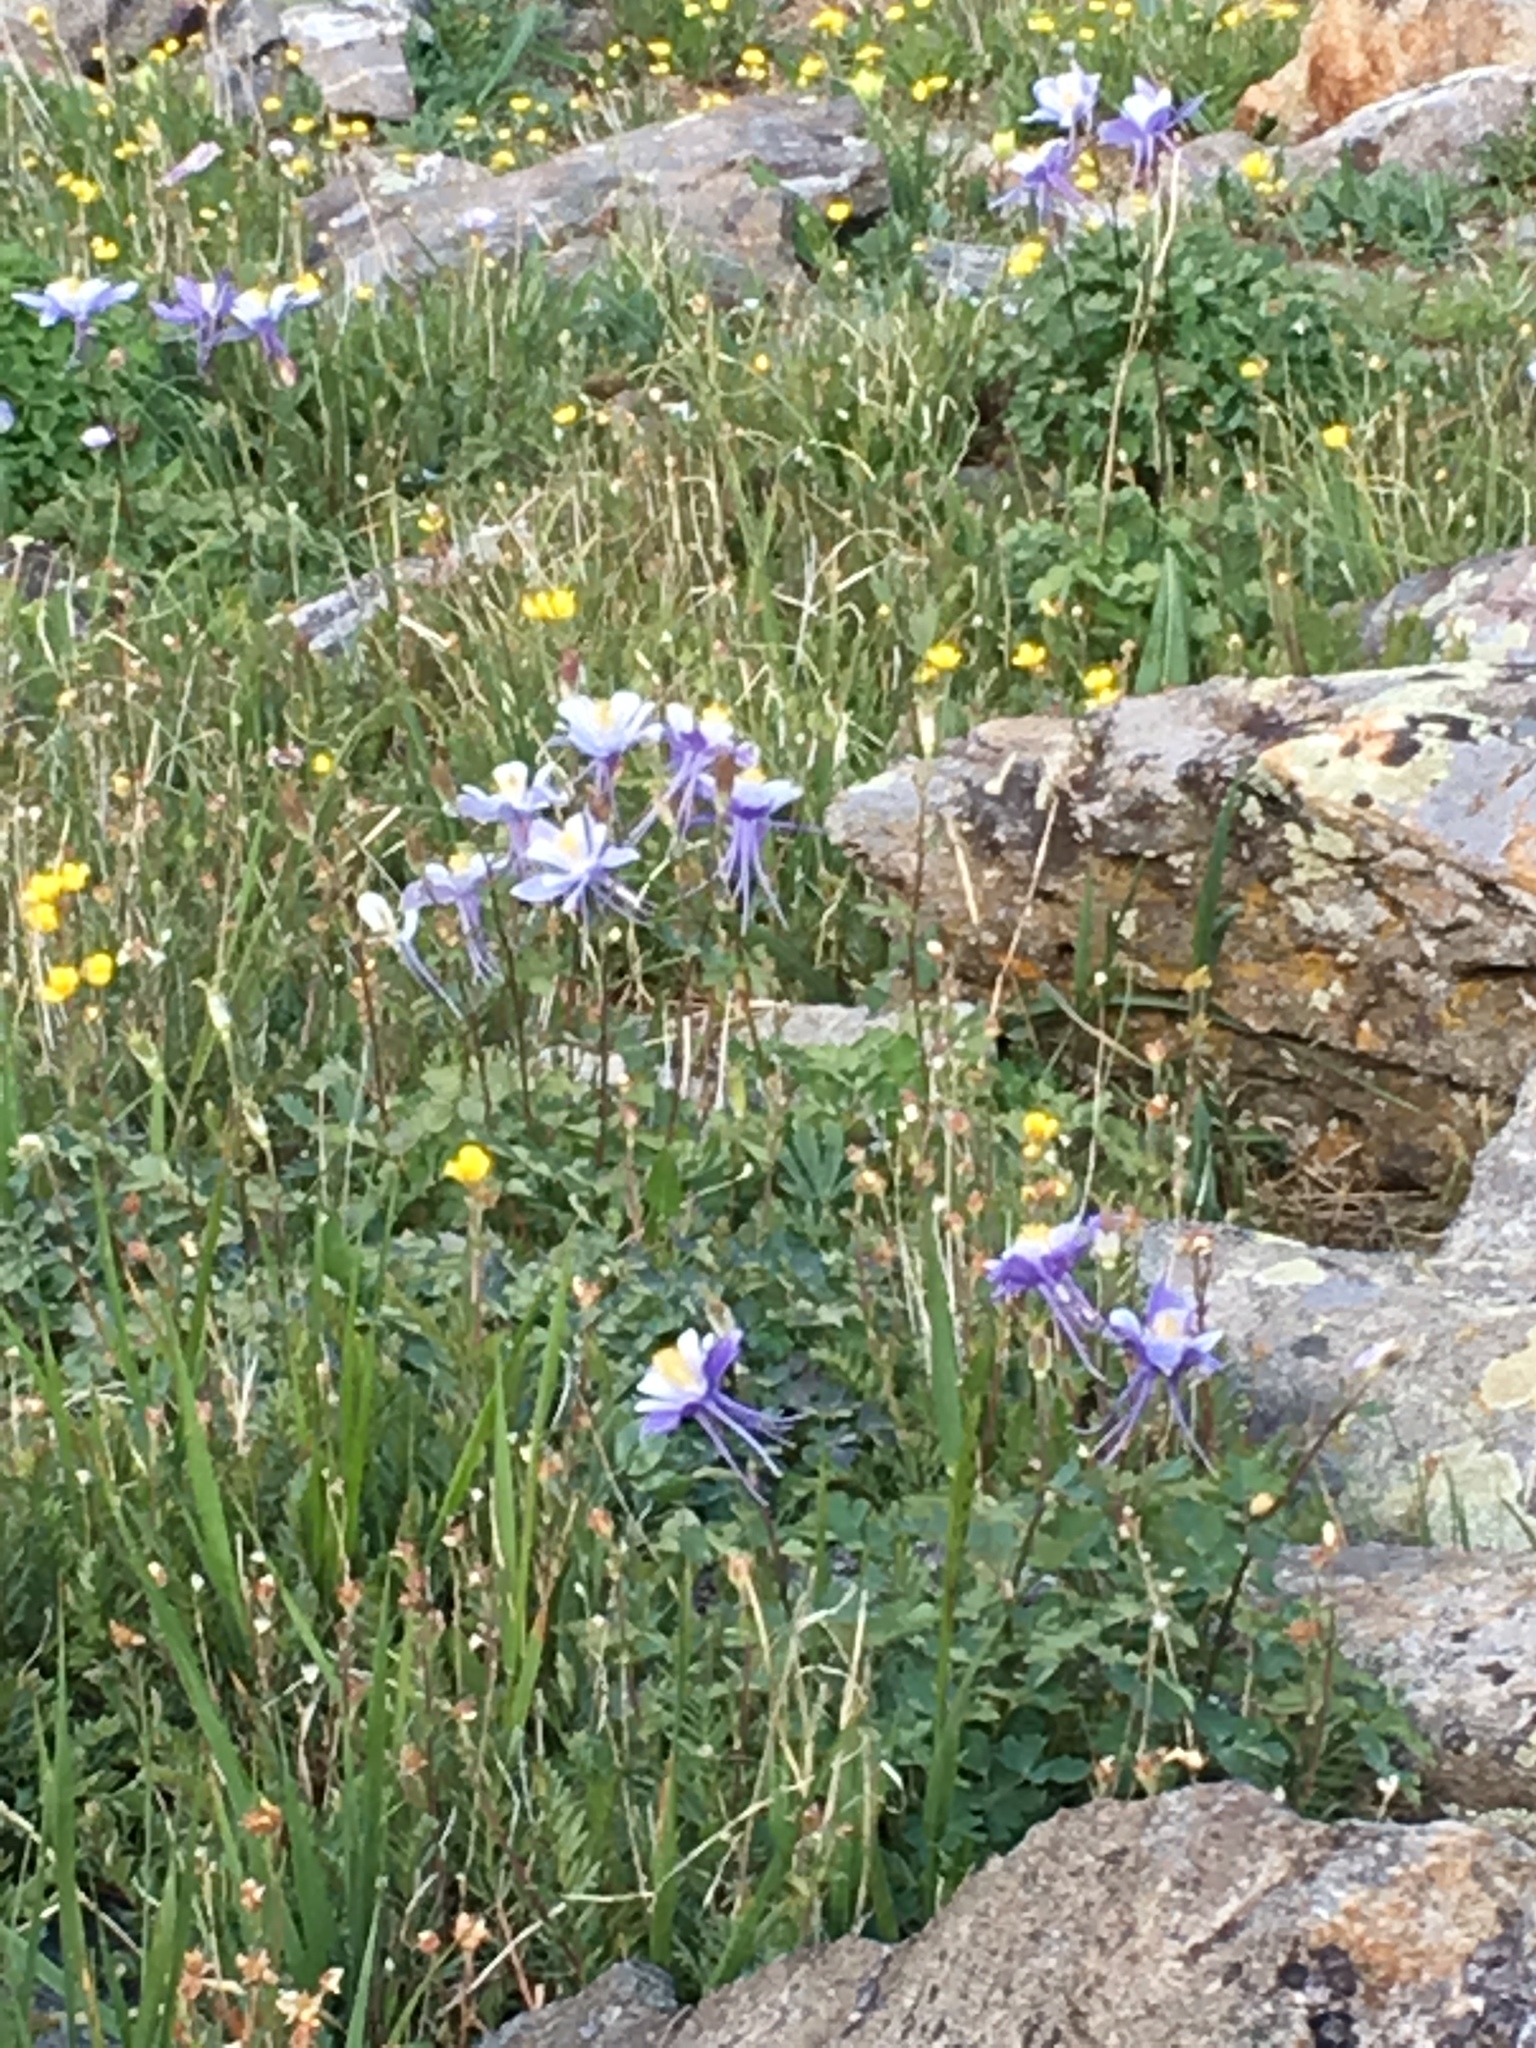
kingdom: Plantae
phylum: Tracheophyta
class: Magnoliopsida
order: Ranunculales
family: Ranunculaceae
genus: Aquilegia
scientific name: Aquilegia coerulea
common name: Rocky mountain columbine
